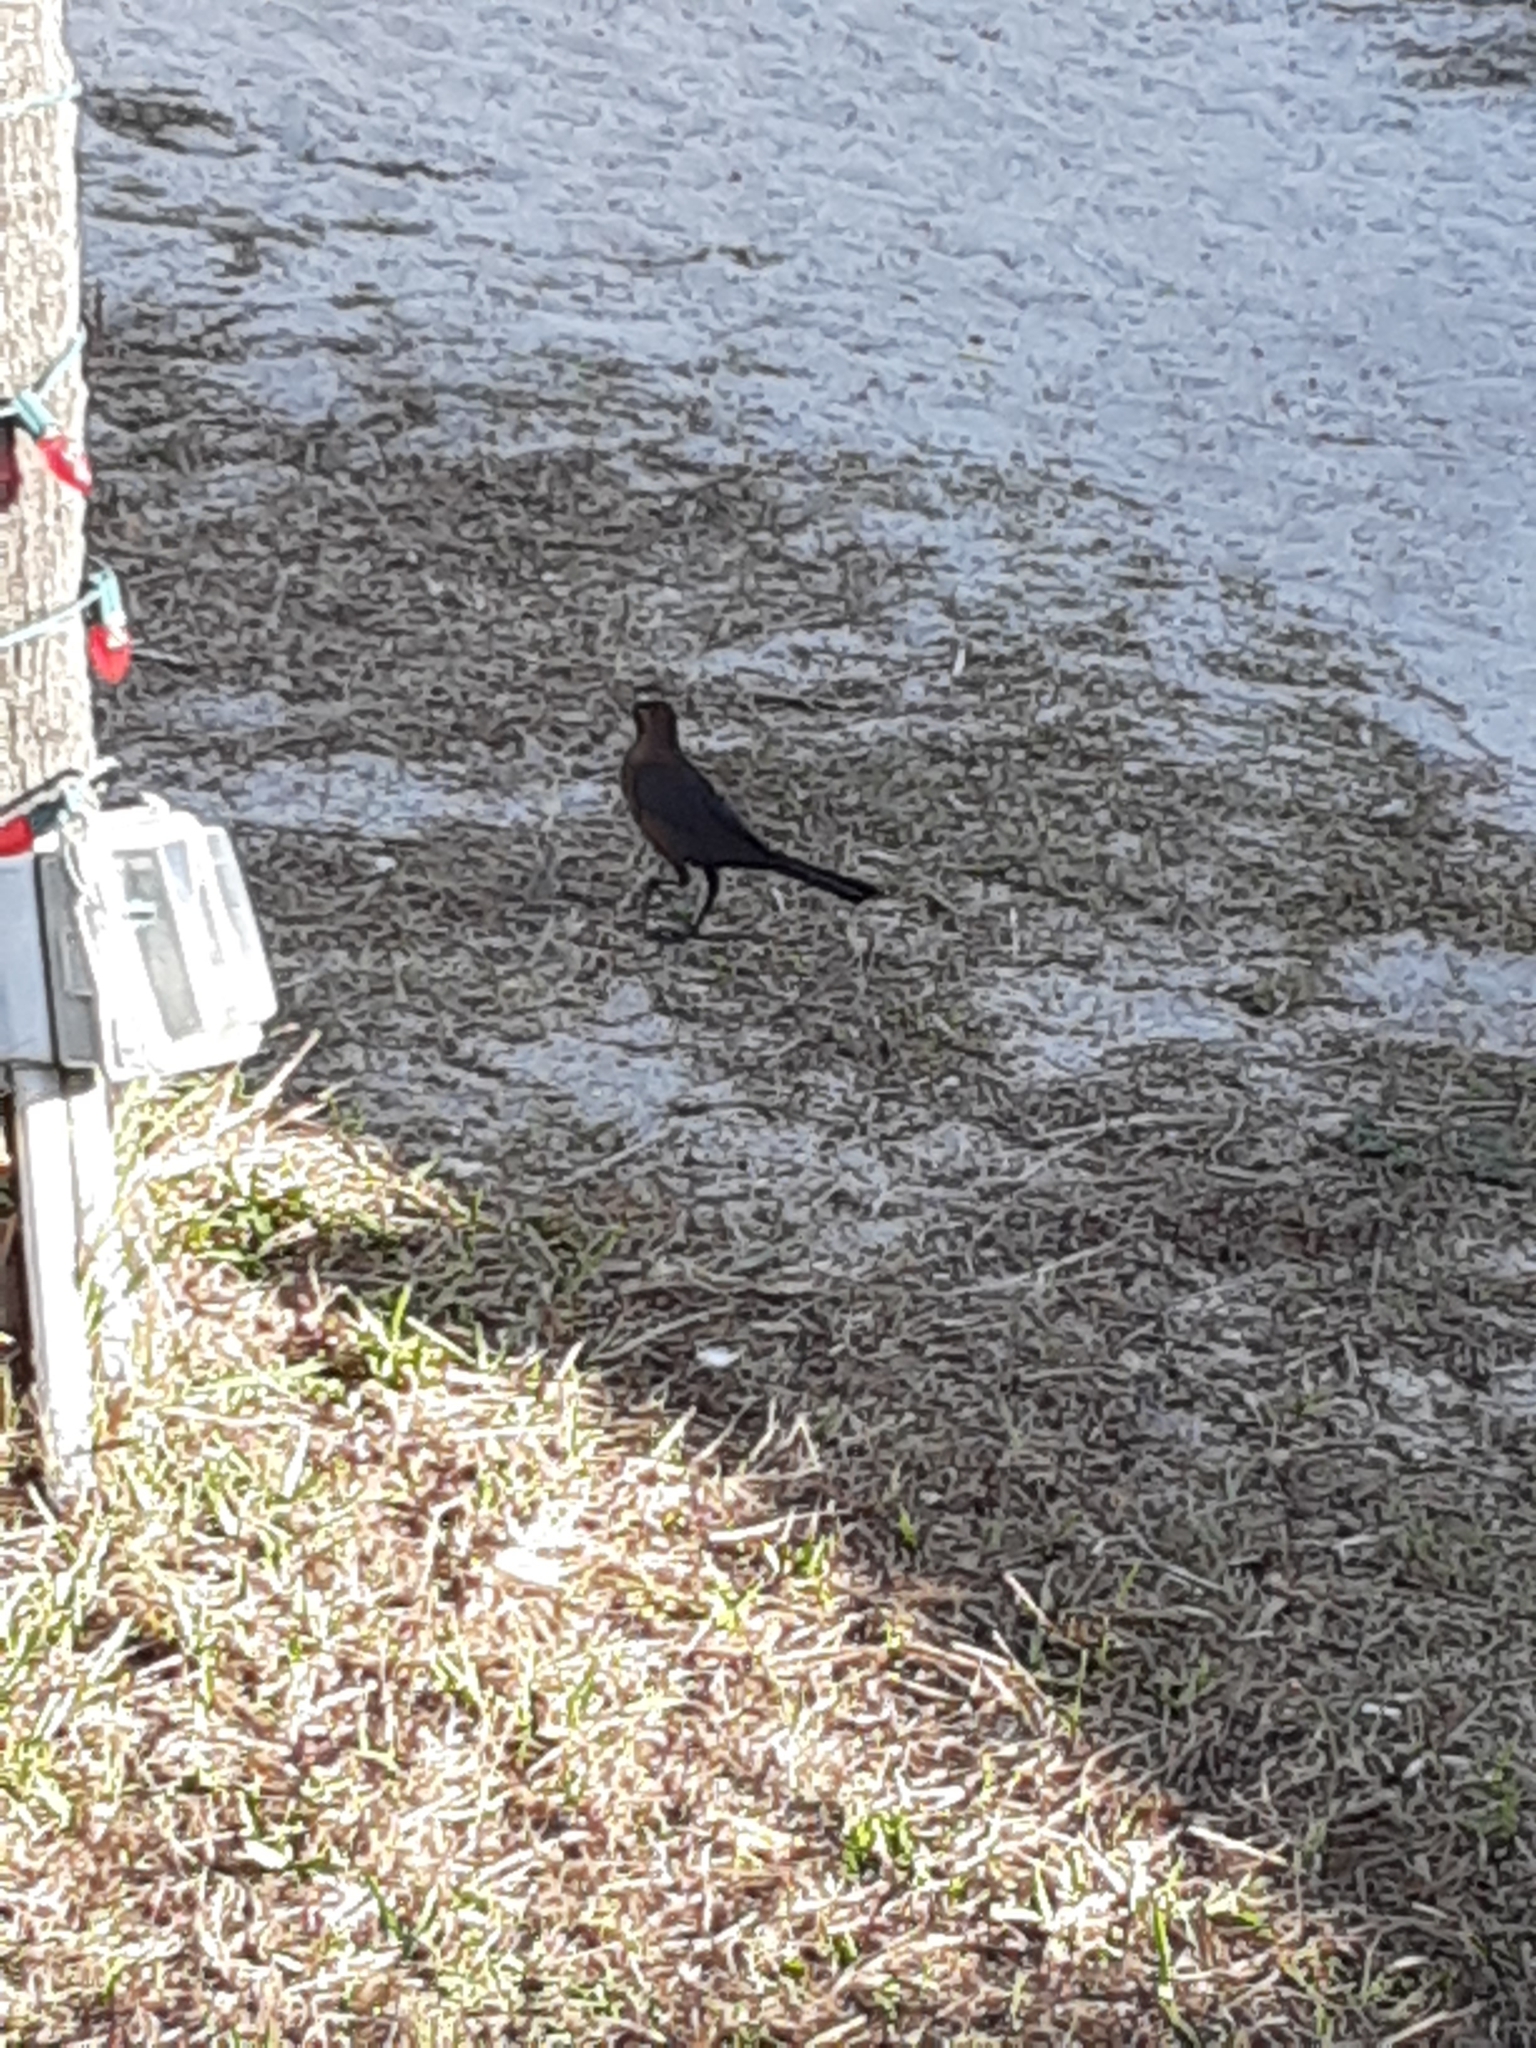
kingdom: Animalia
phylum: Chordata
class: Aves
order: Passeriformes
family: Icteridae
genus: Quiscalus
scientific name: Quiscalus major
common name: Boat-tailed grackle
